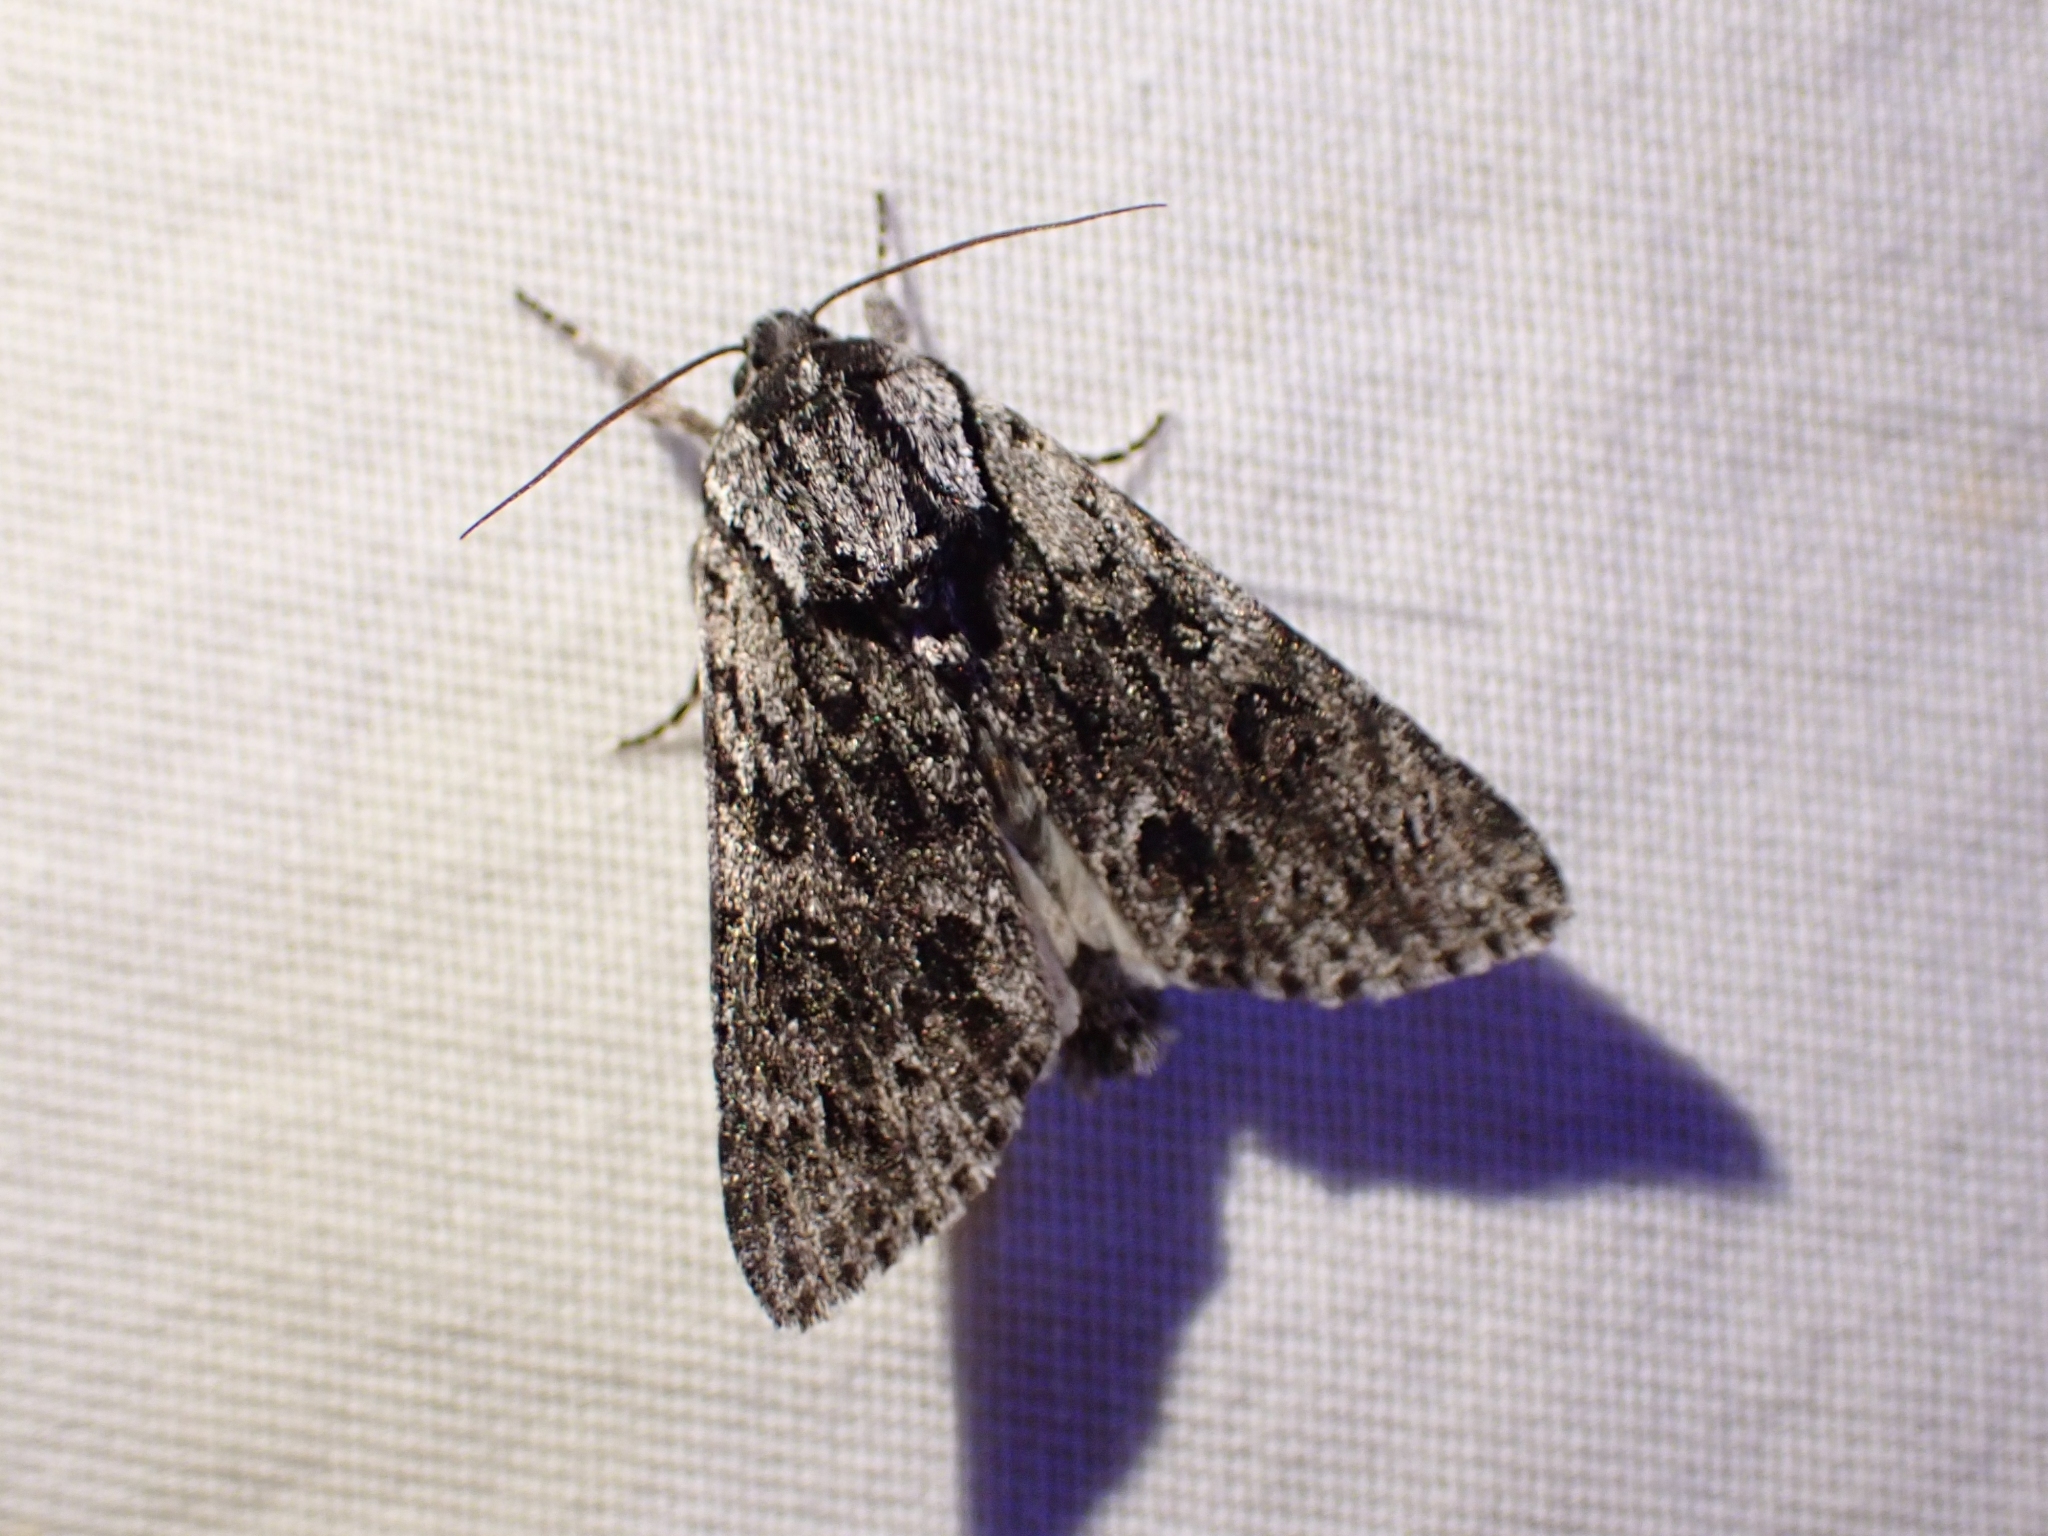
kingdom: Animalia
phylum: Arthropoda
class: Insecta
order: Lepidoptera
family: Noctuidae
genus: Acronicta
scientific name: Acronicta impressa
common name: Impressed dagger
